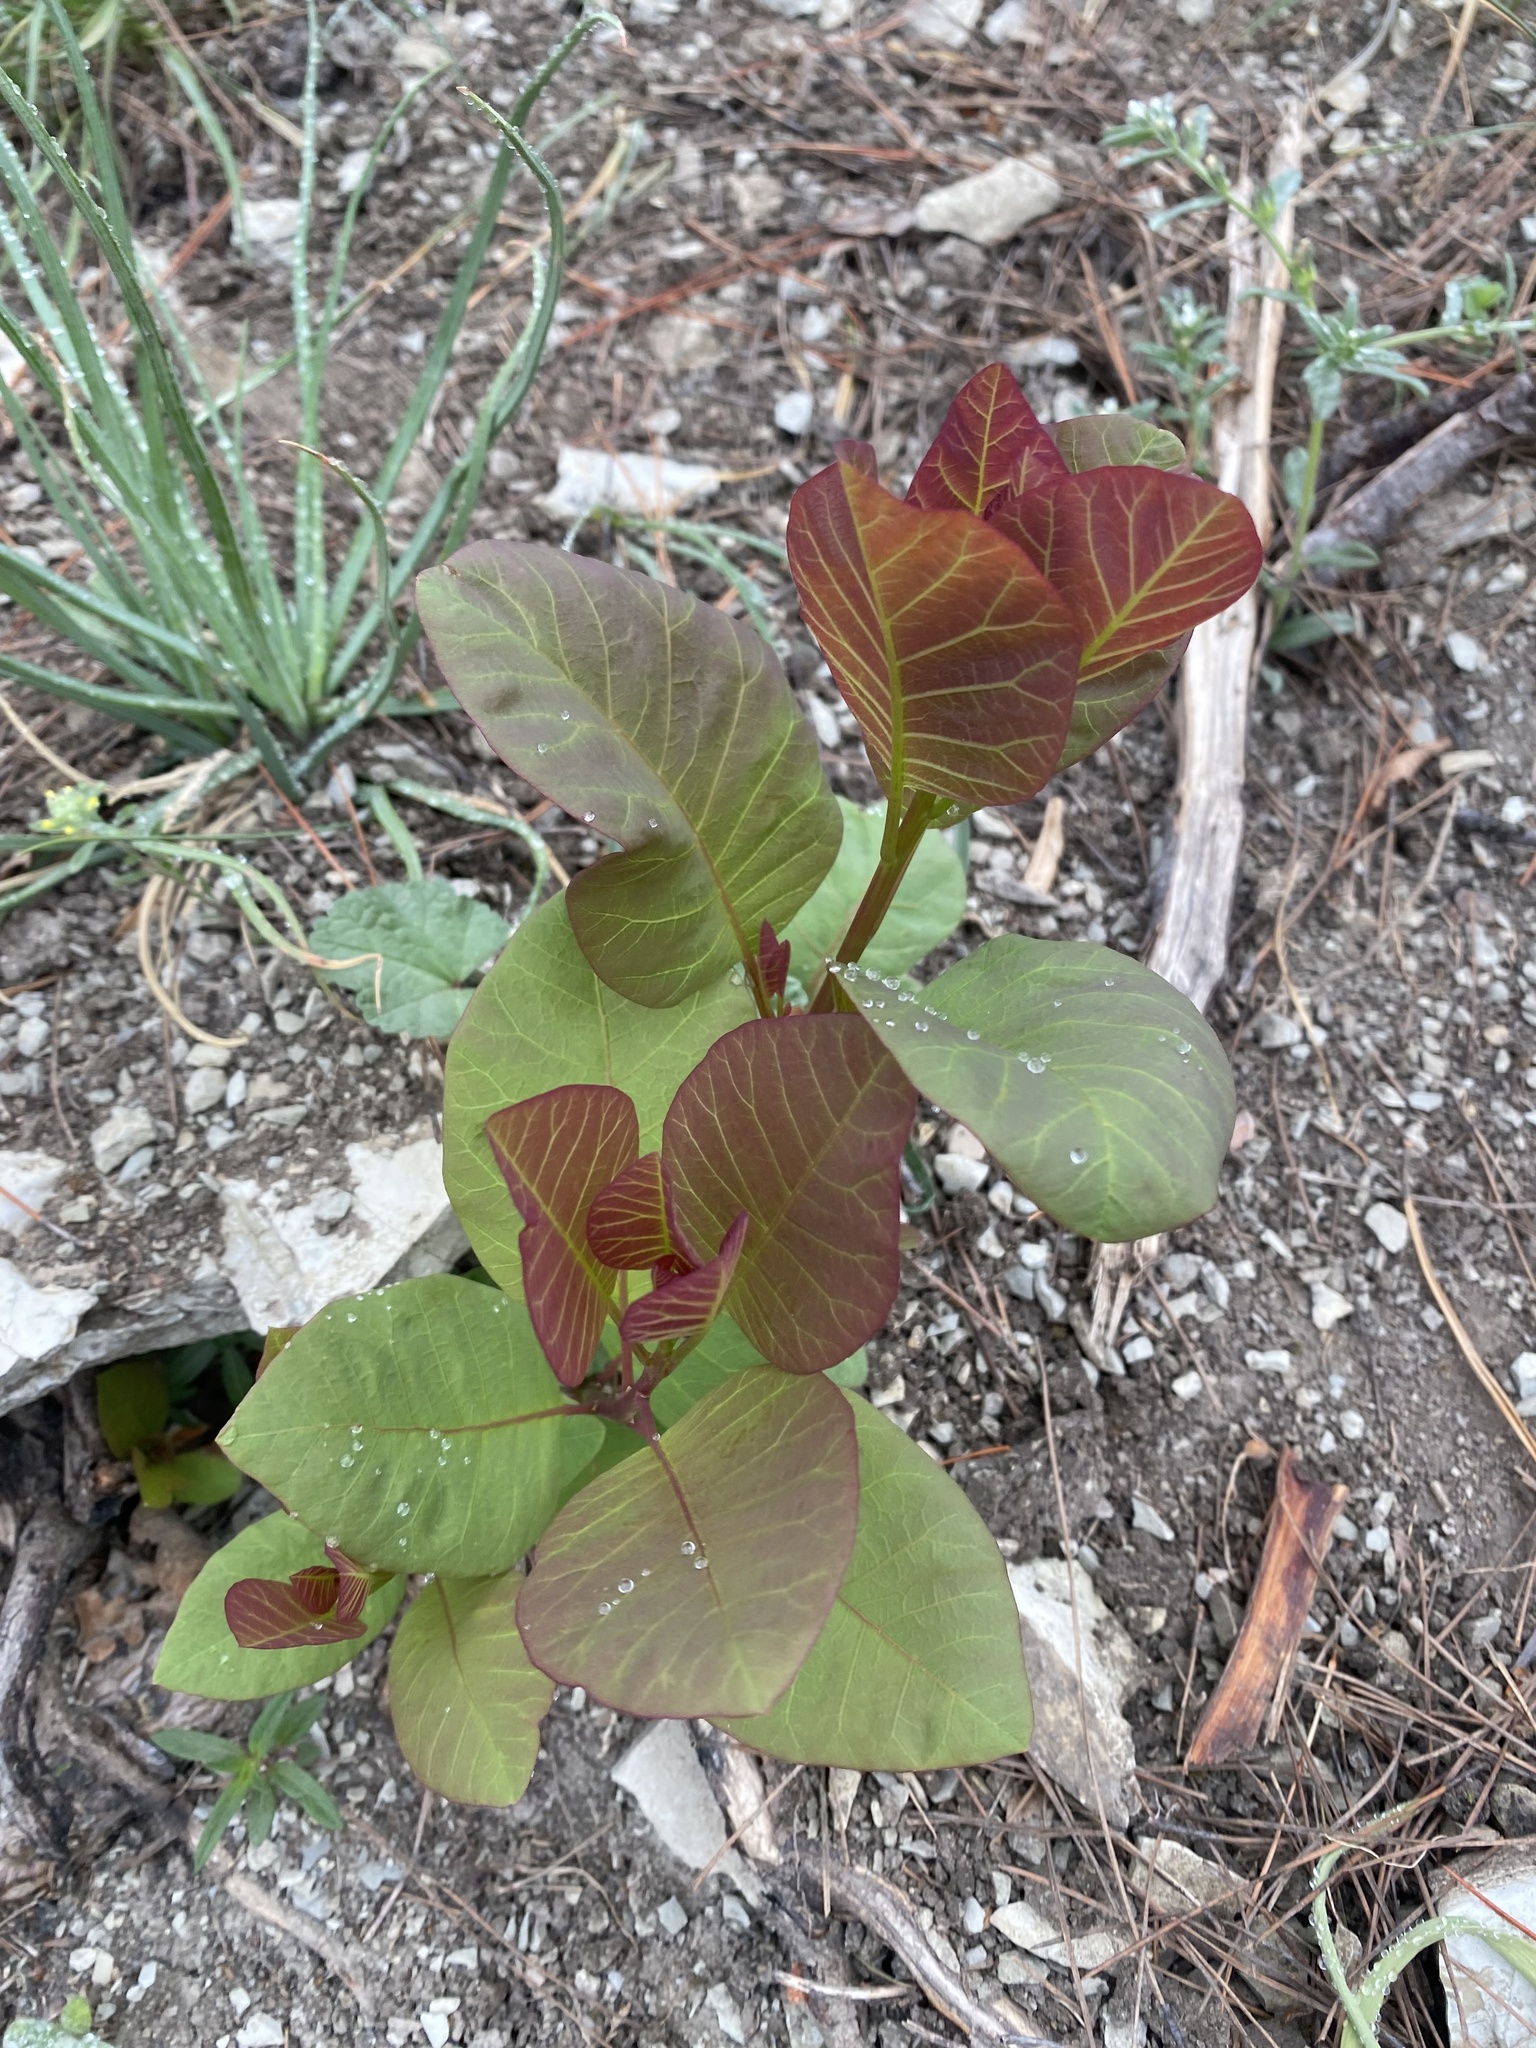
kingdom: Plantae
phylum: Tracheophyta
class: Magnoliopsida
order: Sapindales
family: Anacardiaceae
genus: Cotinus
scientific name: Cotinus coggygria
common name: Smoke-tree
